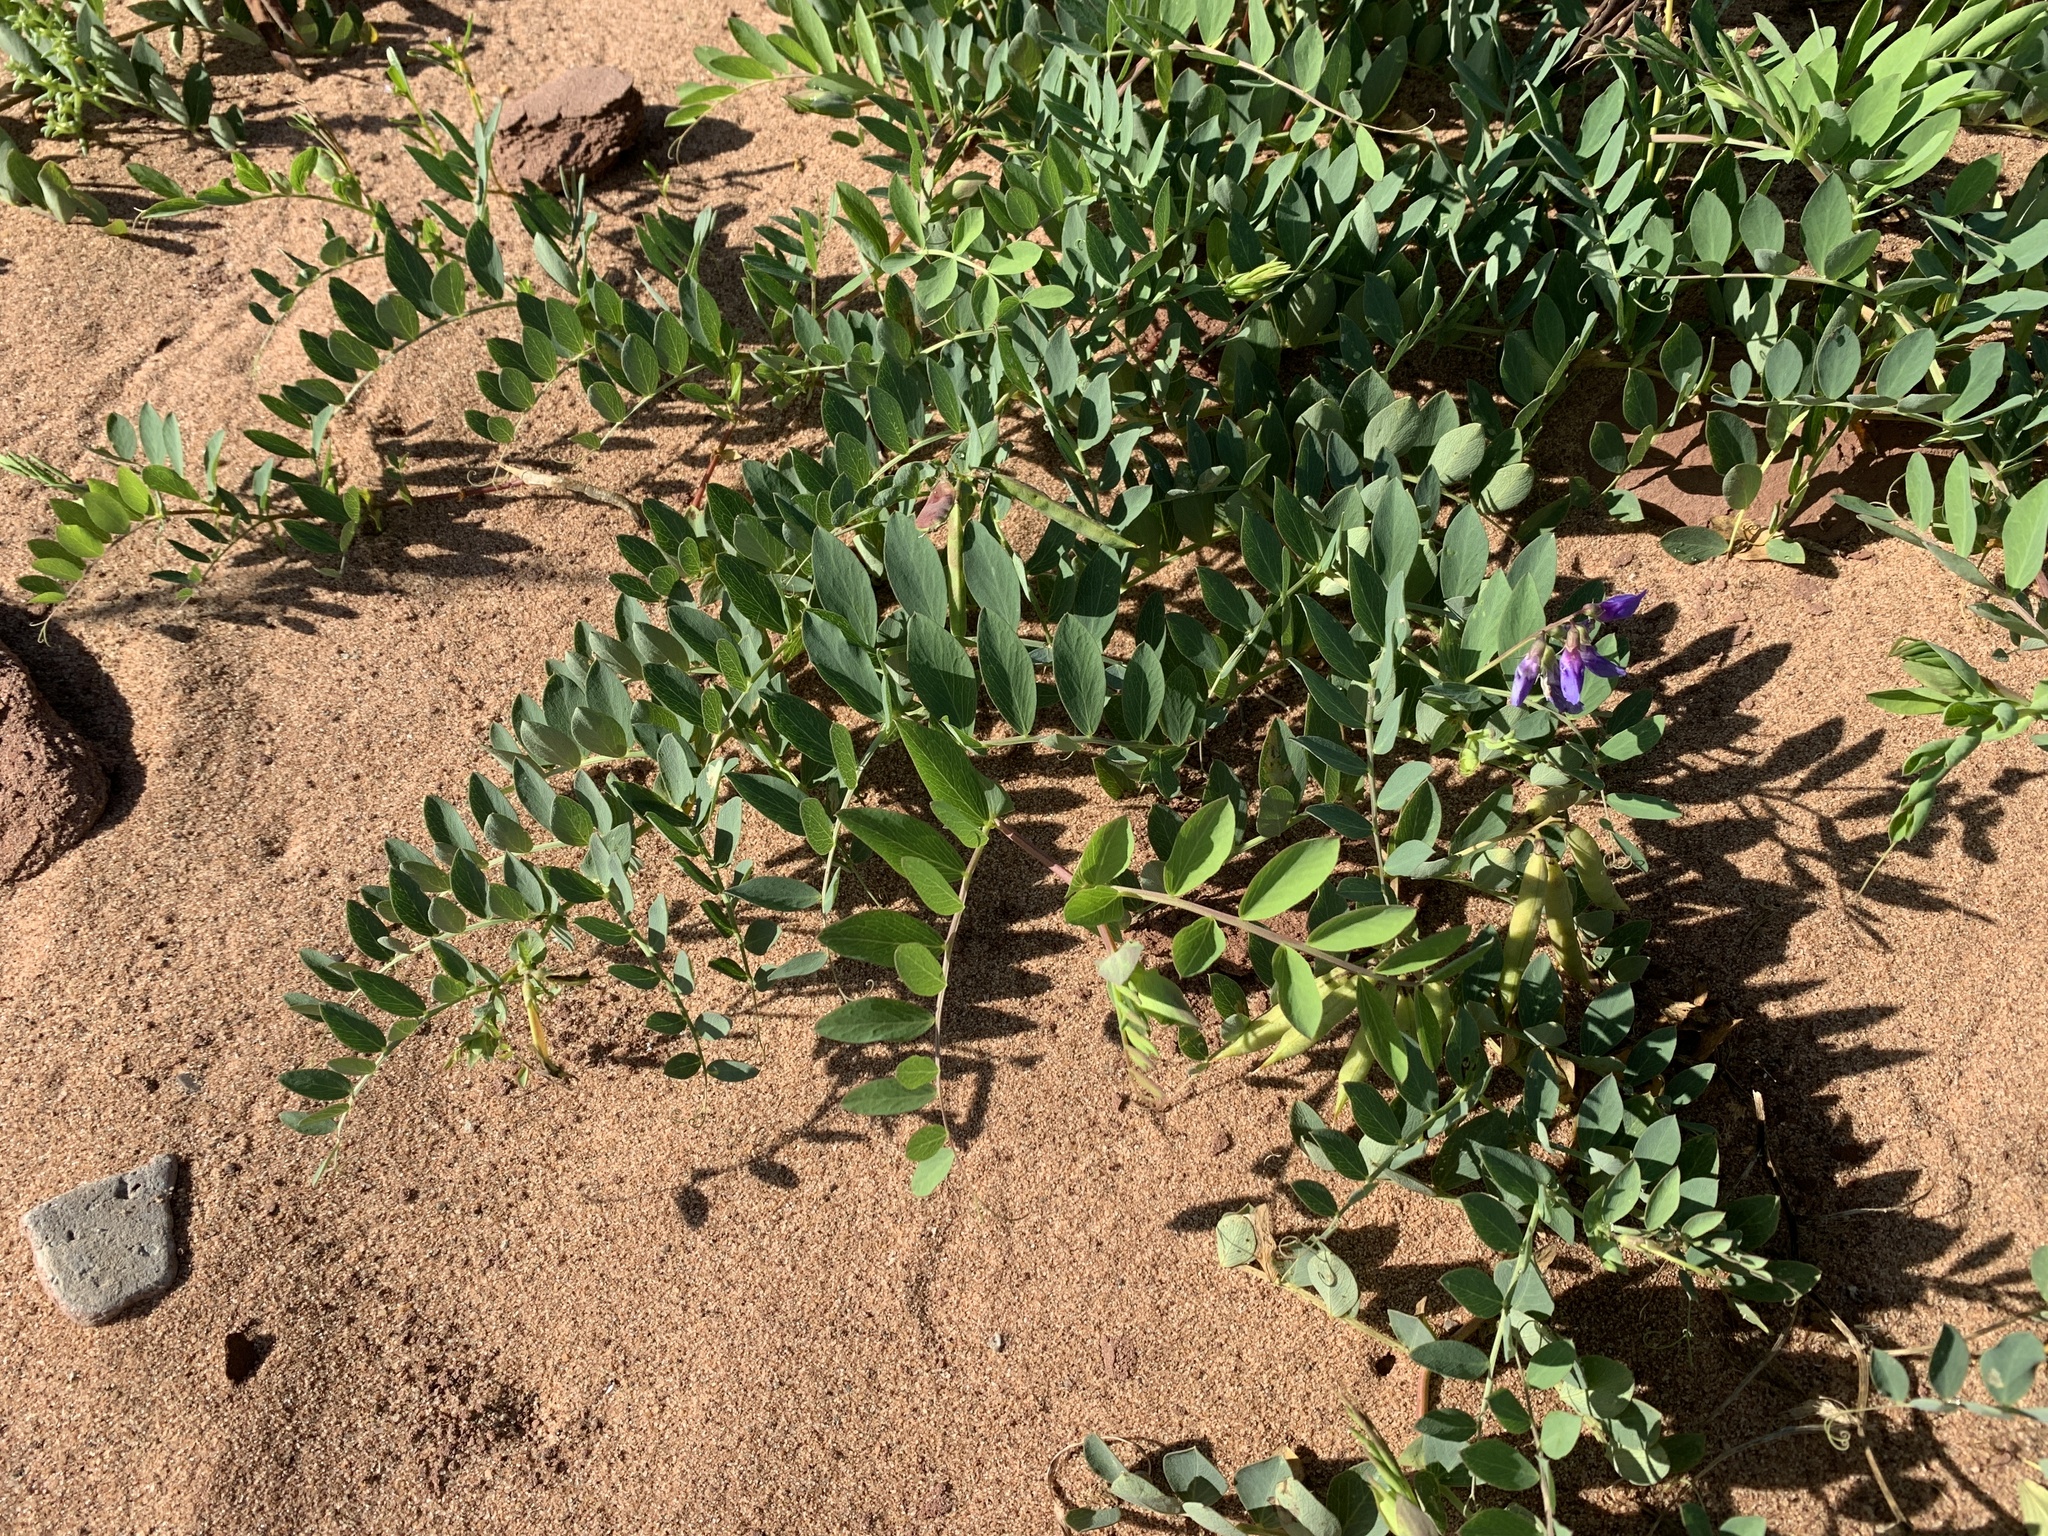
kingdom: Plantae
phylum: Tracheophyta
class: Magnoliopsida
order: Fabales
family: Fabaceae
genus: Lathyrus
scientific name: Lathyrus japonicus
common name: Sea pea
